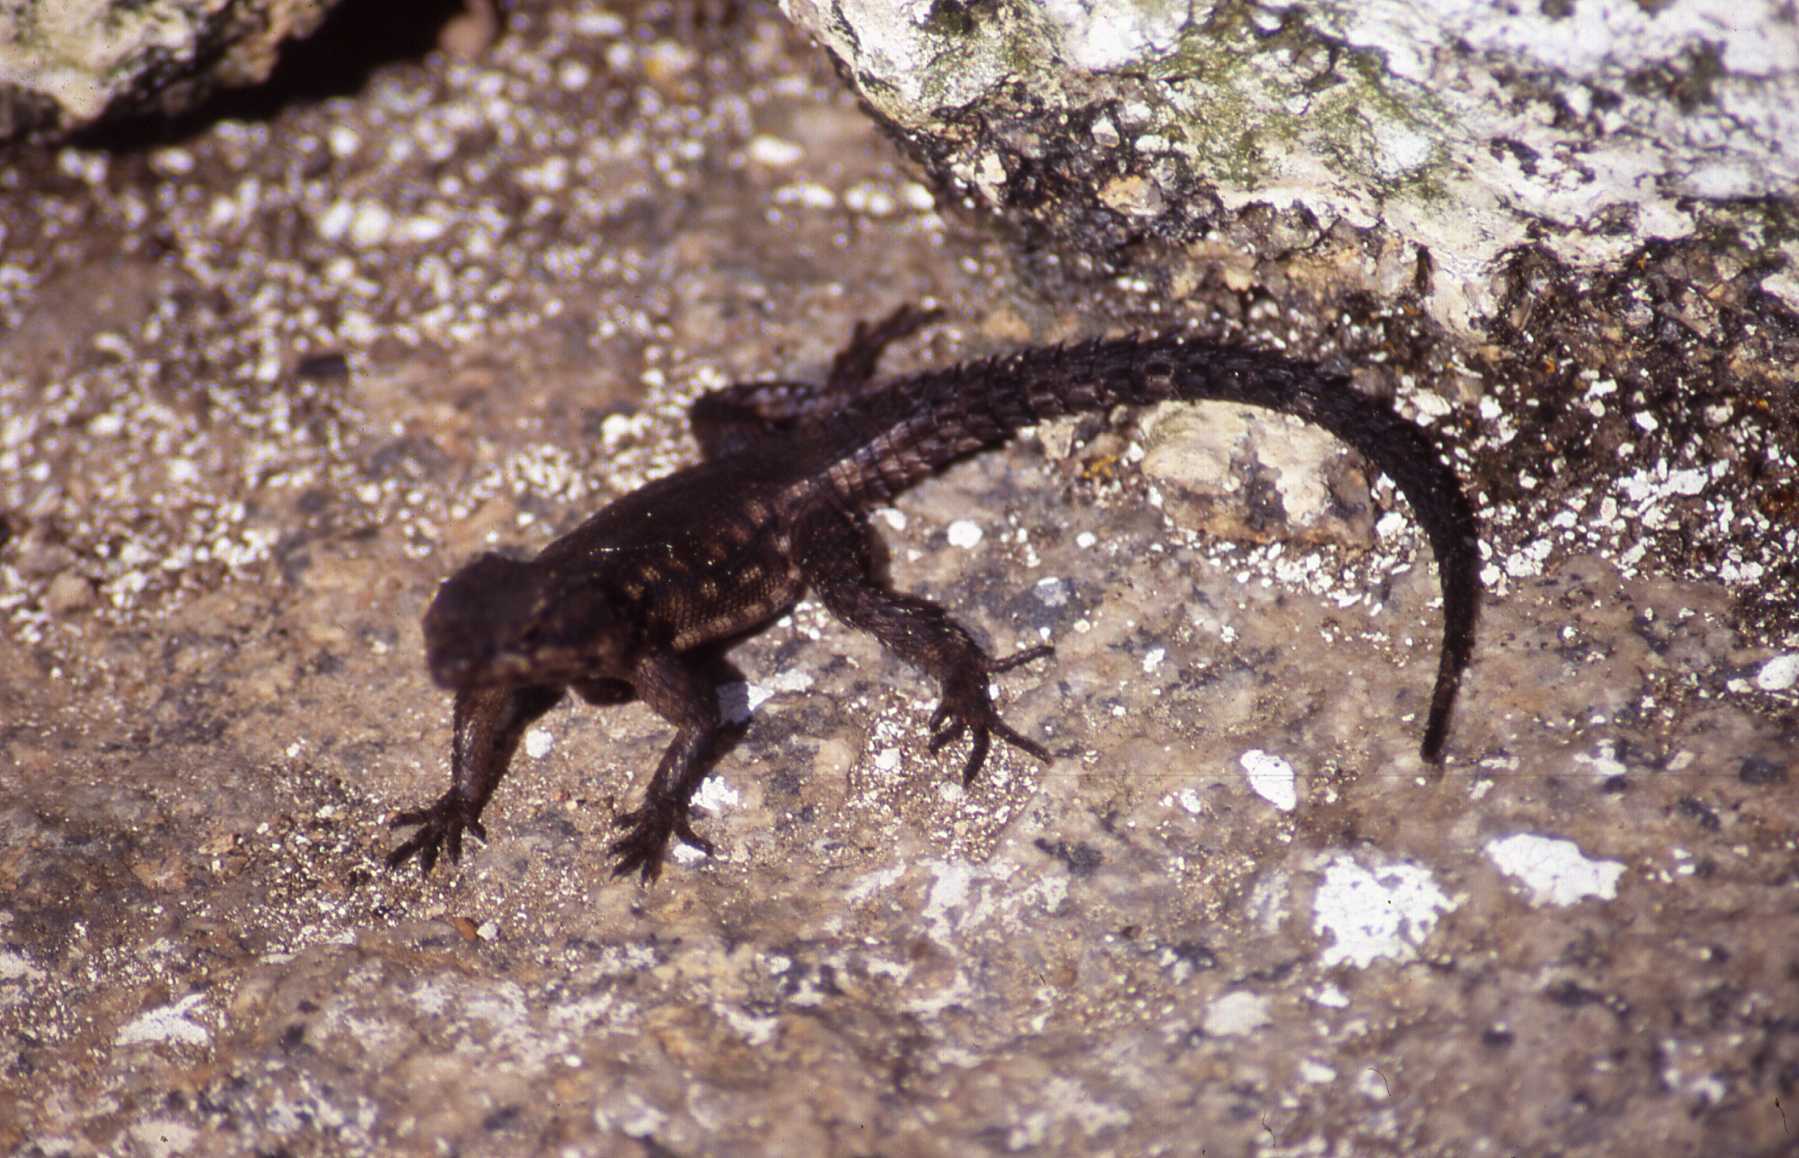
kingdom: Animalia
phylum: Chordata
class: Squamata
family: Cordylidae
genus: Karusasaurus
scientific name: Karusasaurus polyzonus
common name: Karoo girdled lizard
